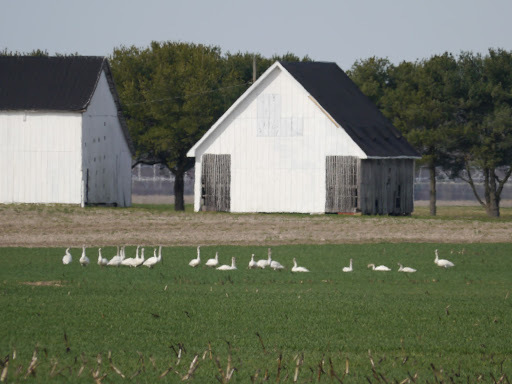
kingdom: Animalia
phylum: Chordata
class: Aves
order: Anseriformes
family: Anatidae
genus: Cygnus
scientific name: Cygnus columbianus
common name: Tundra swan
